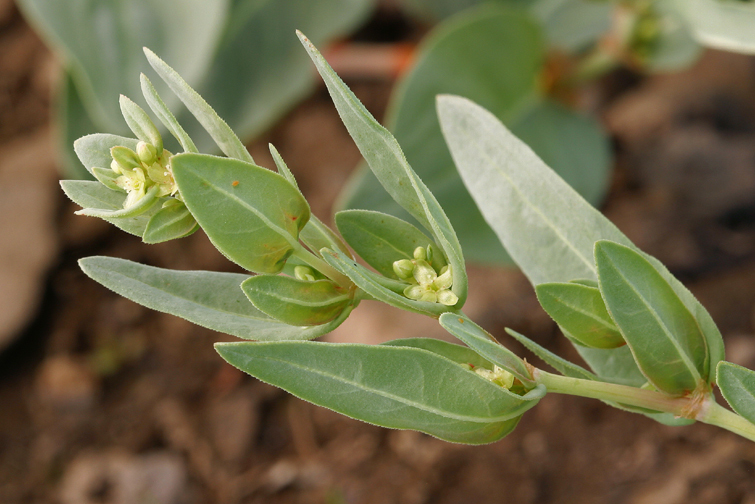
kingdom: Plantae
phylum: Tracheophyta
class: Magnoliopsida
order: Caryophyllales
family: Polygonaceae
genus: Koenigia
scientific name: Koenigia davisiae
